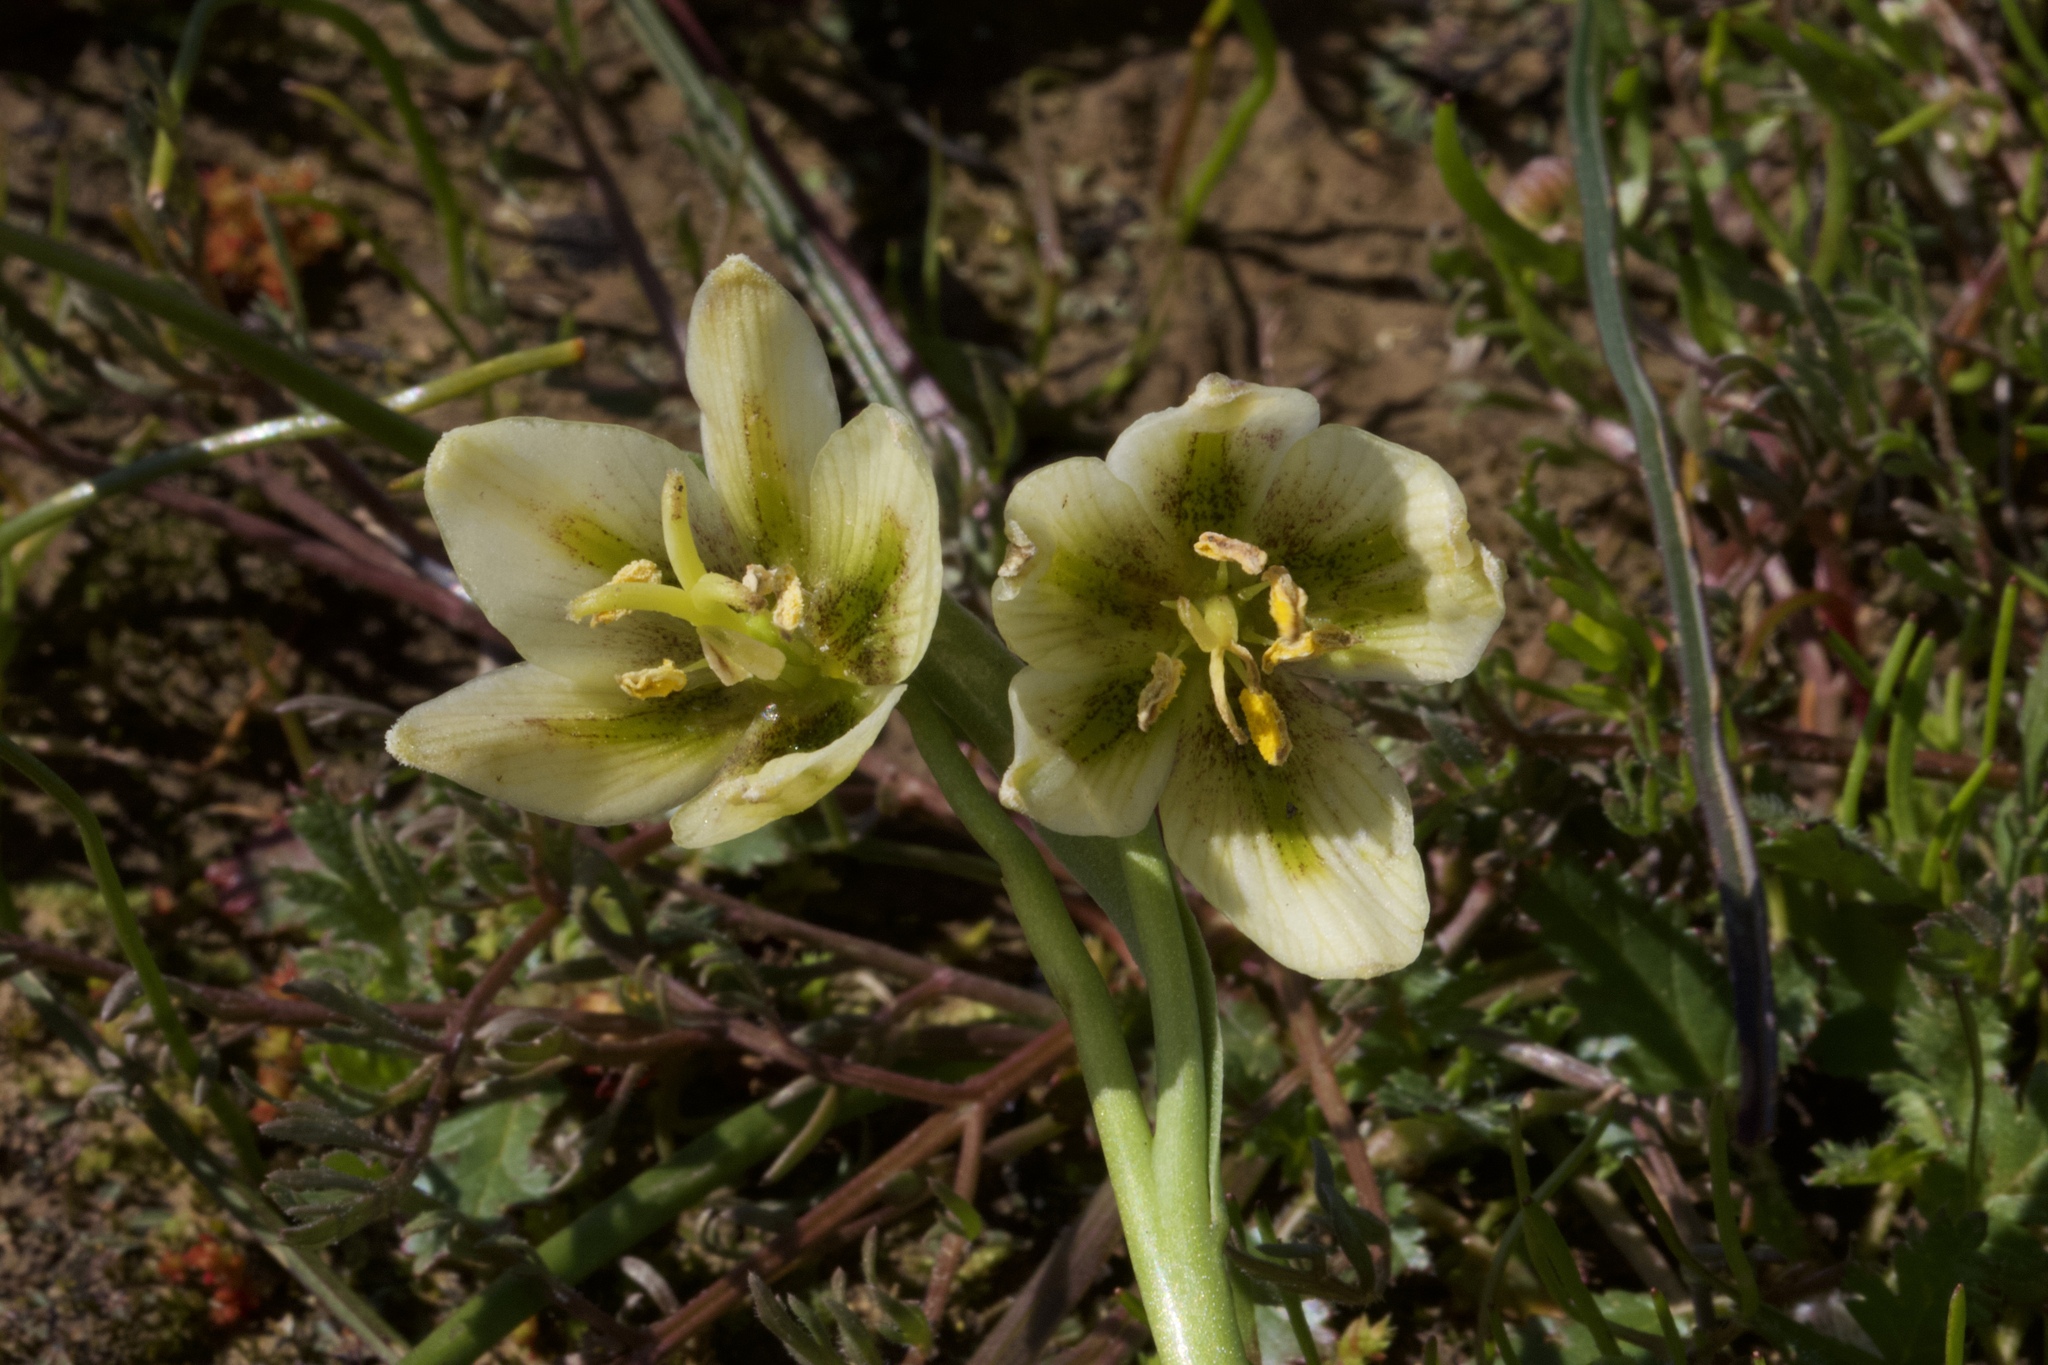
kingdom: Plantae
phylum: Tracheophyta
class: Liliopsida
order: Liliales
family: Liliaceae
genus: Fritillaria
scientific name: Fritillaria liliacea
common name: Fragrant fritillary
